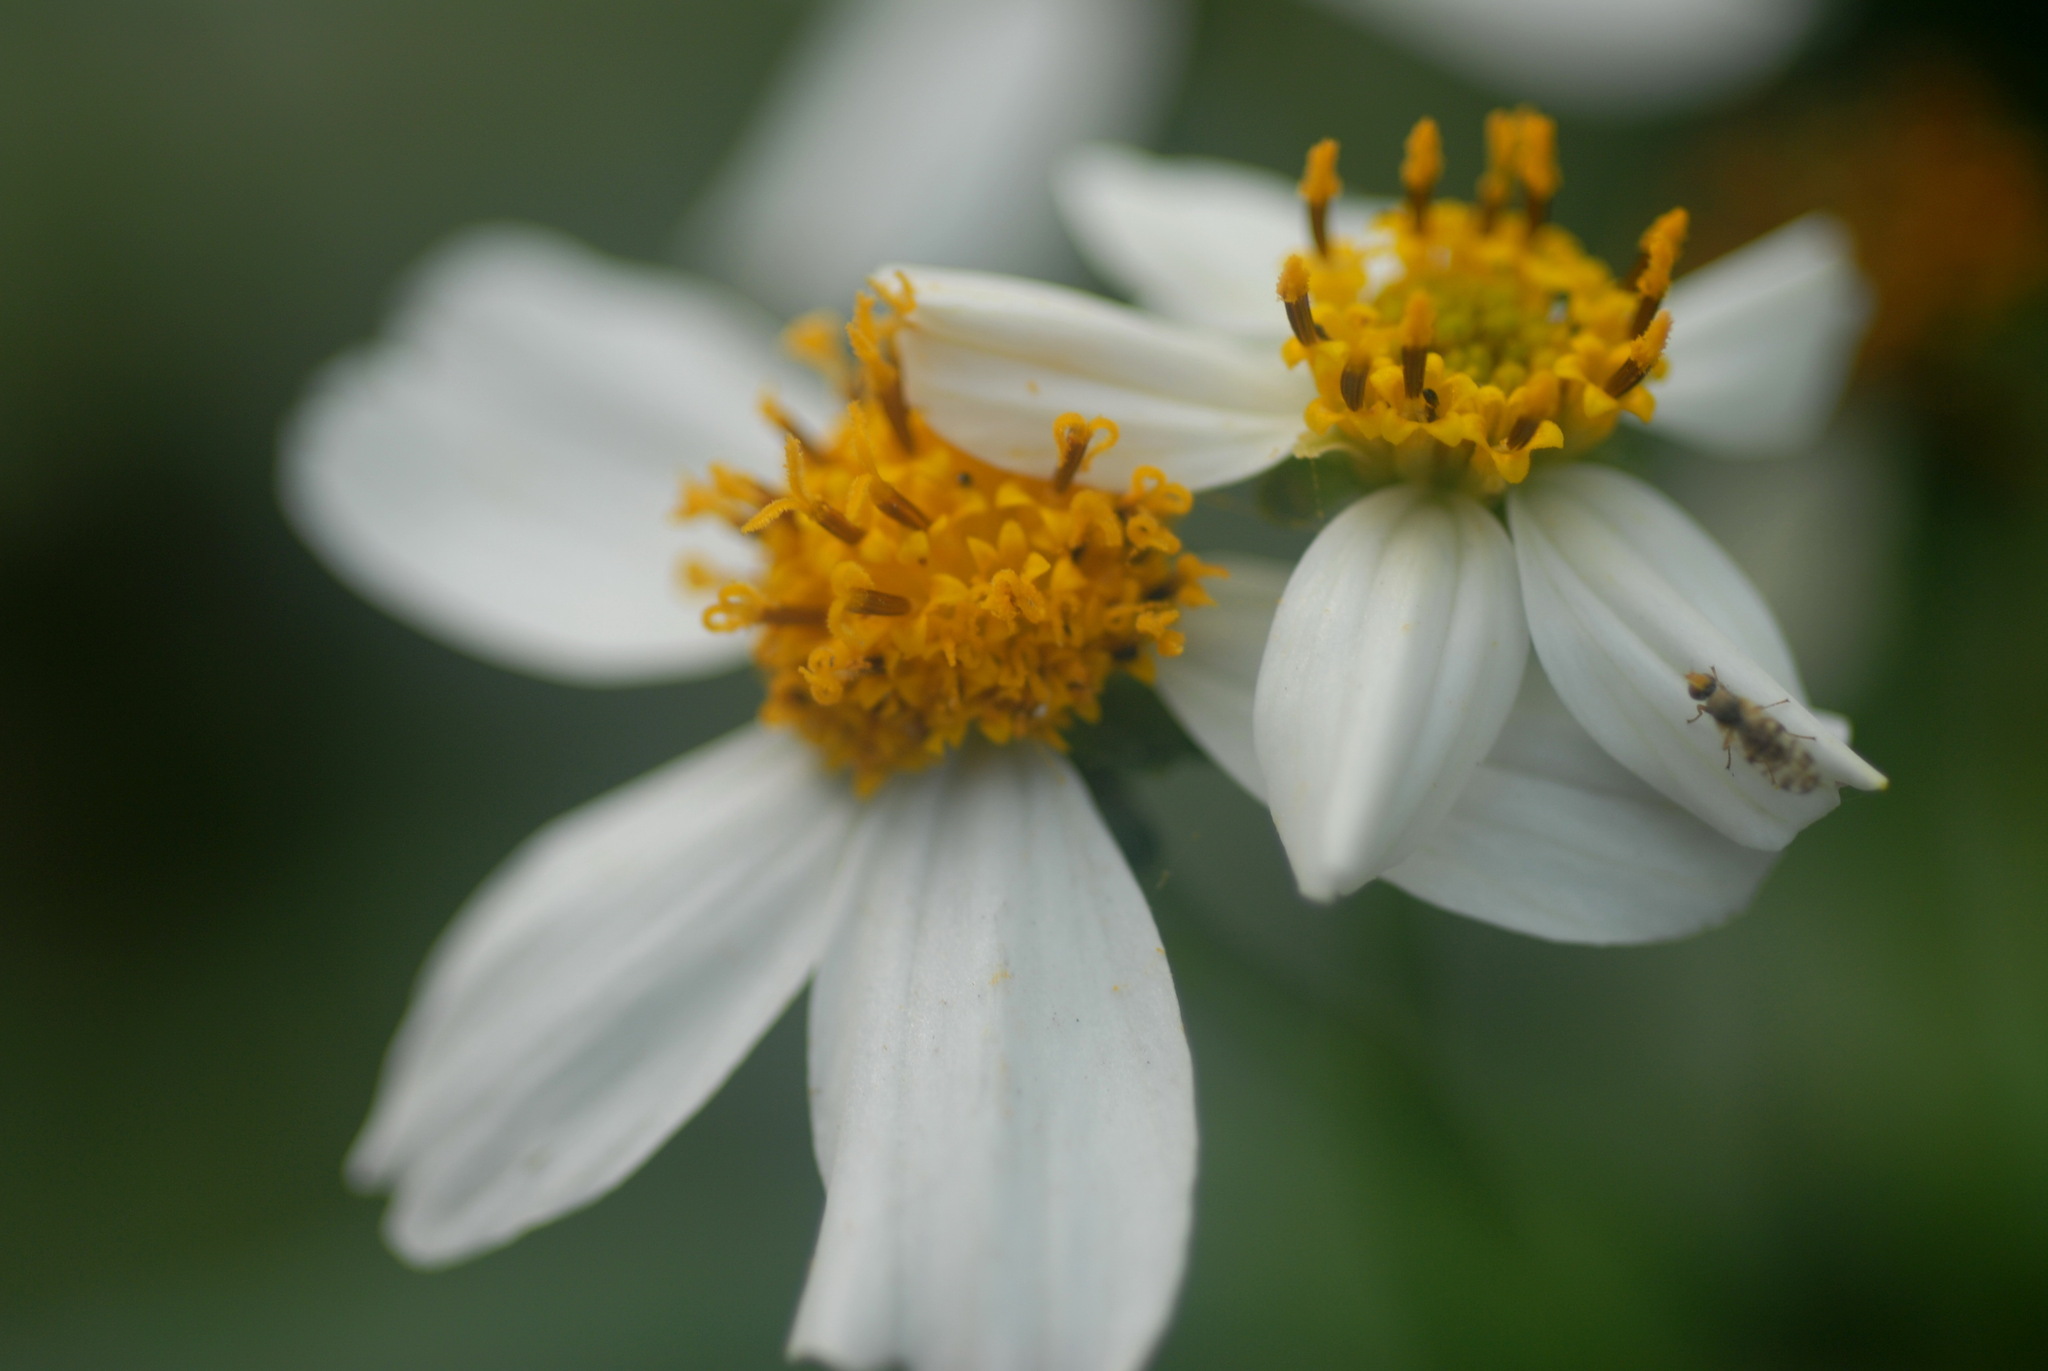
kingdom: Plantae
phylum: Tracheophyta
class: Magnoliopsida
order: Asterales
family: Asteraceae
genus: Bidens
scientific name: Bidens alba
